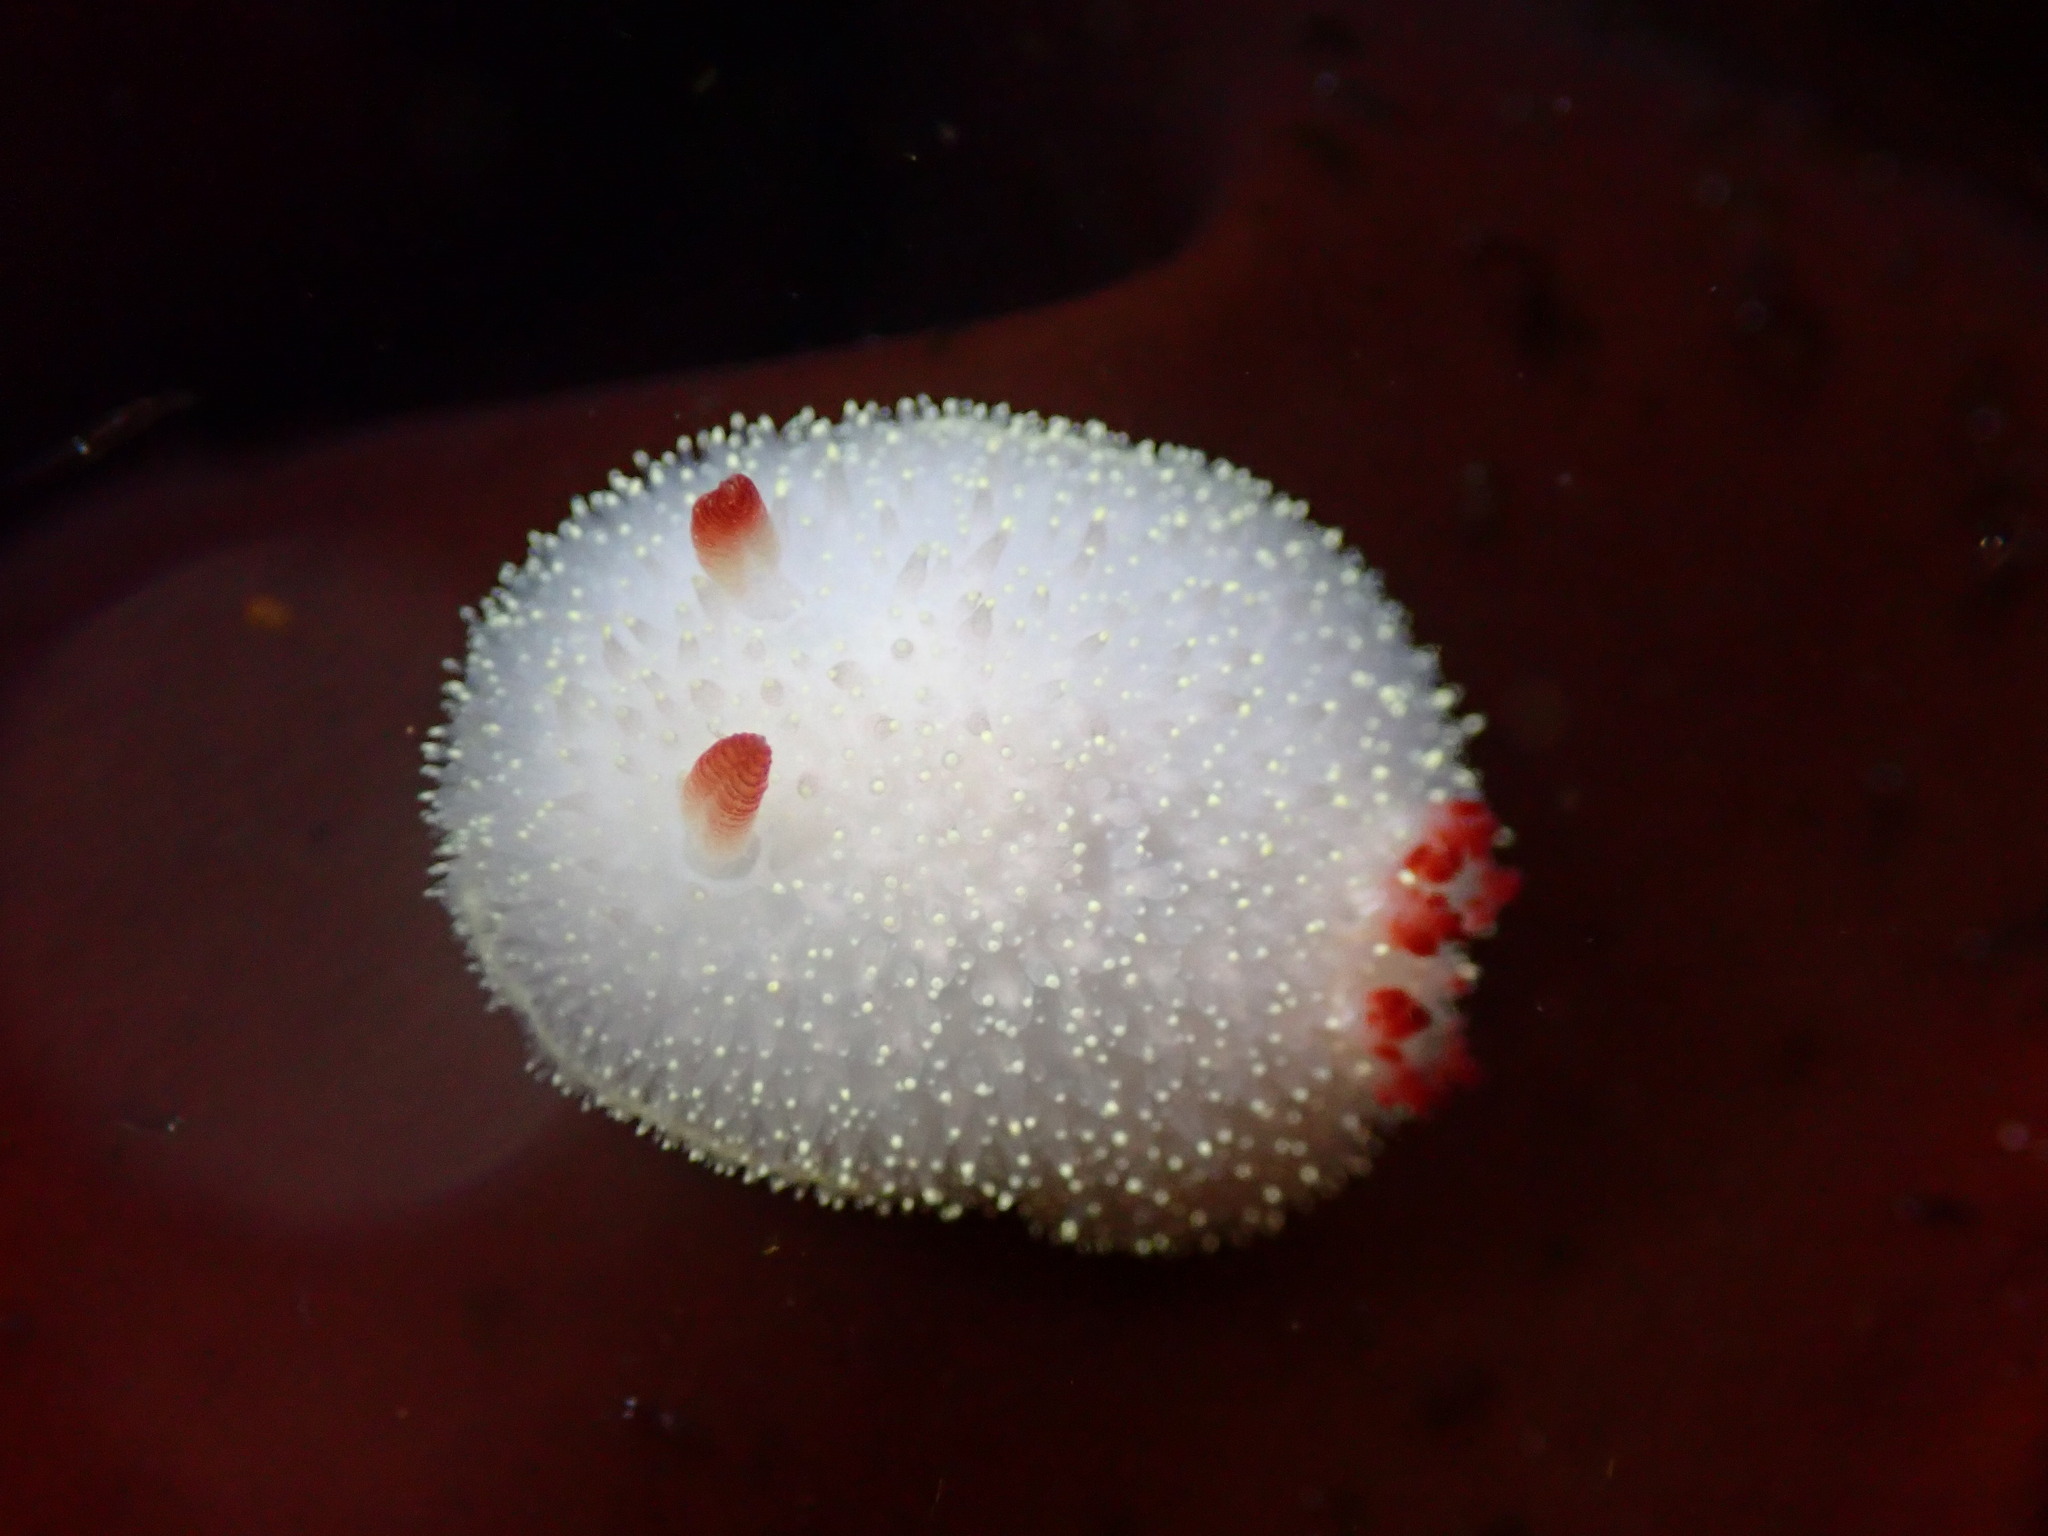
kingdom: Animalia
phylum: Mollusca
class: Gastropoda
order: Nudibranchia
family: Onchidorididae
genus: Acanthodoris
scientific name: Acanthodoris nanaimoensis
